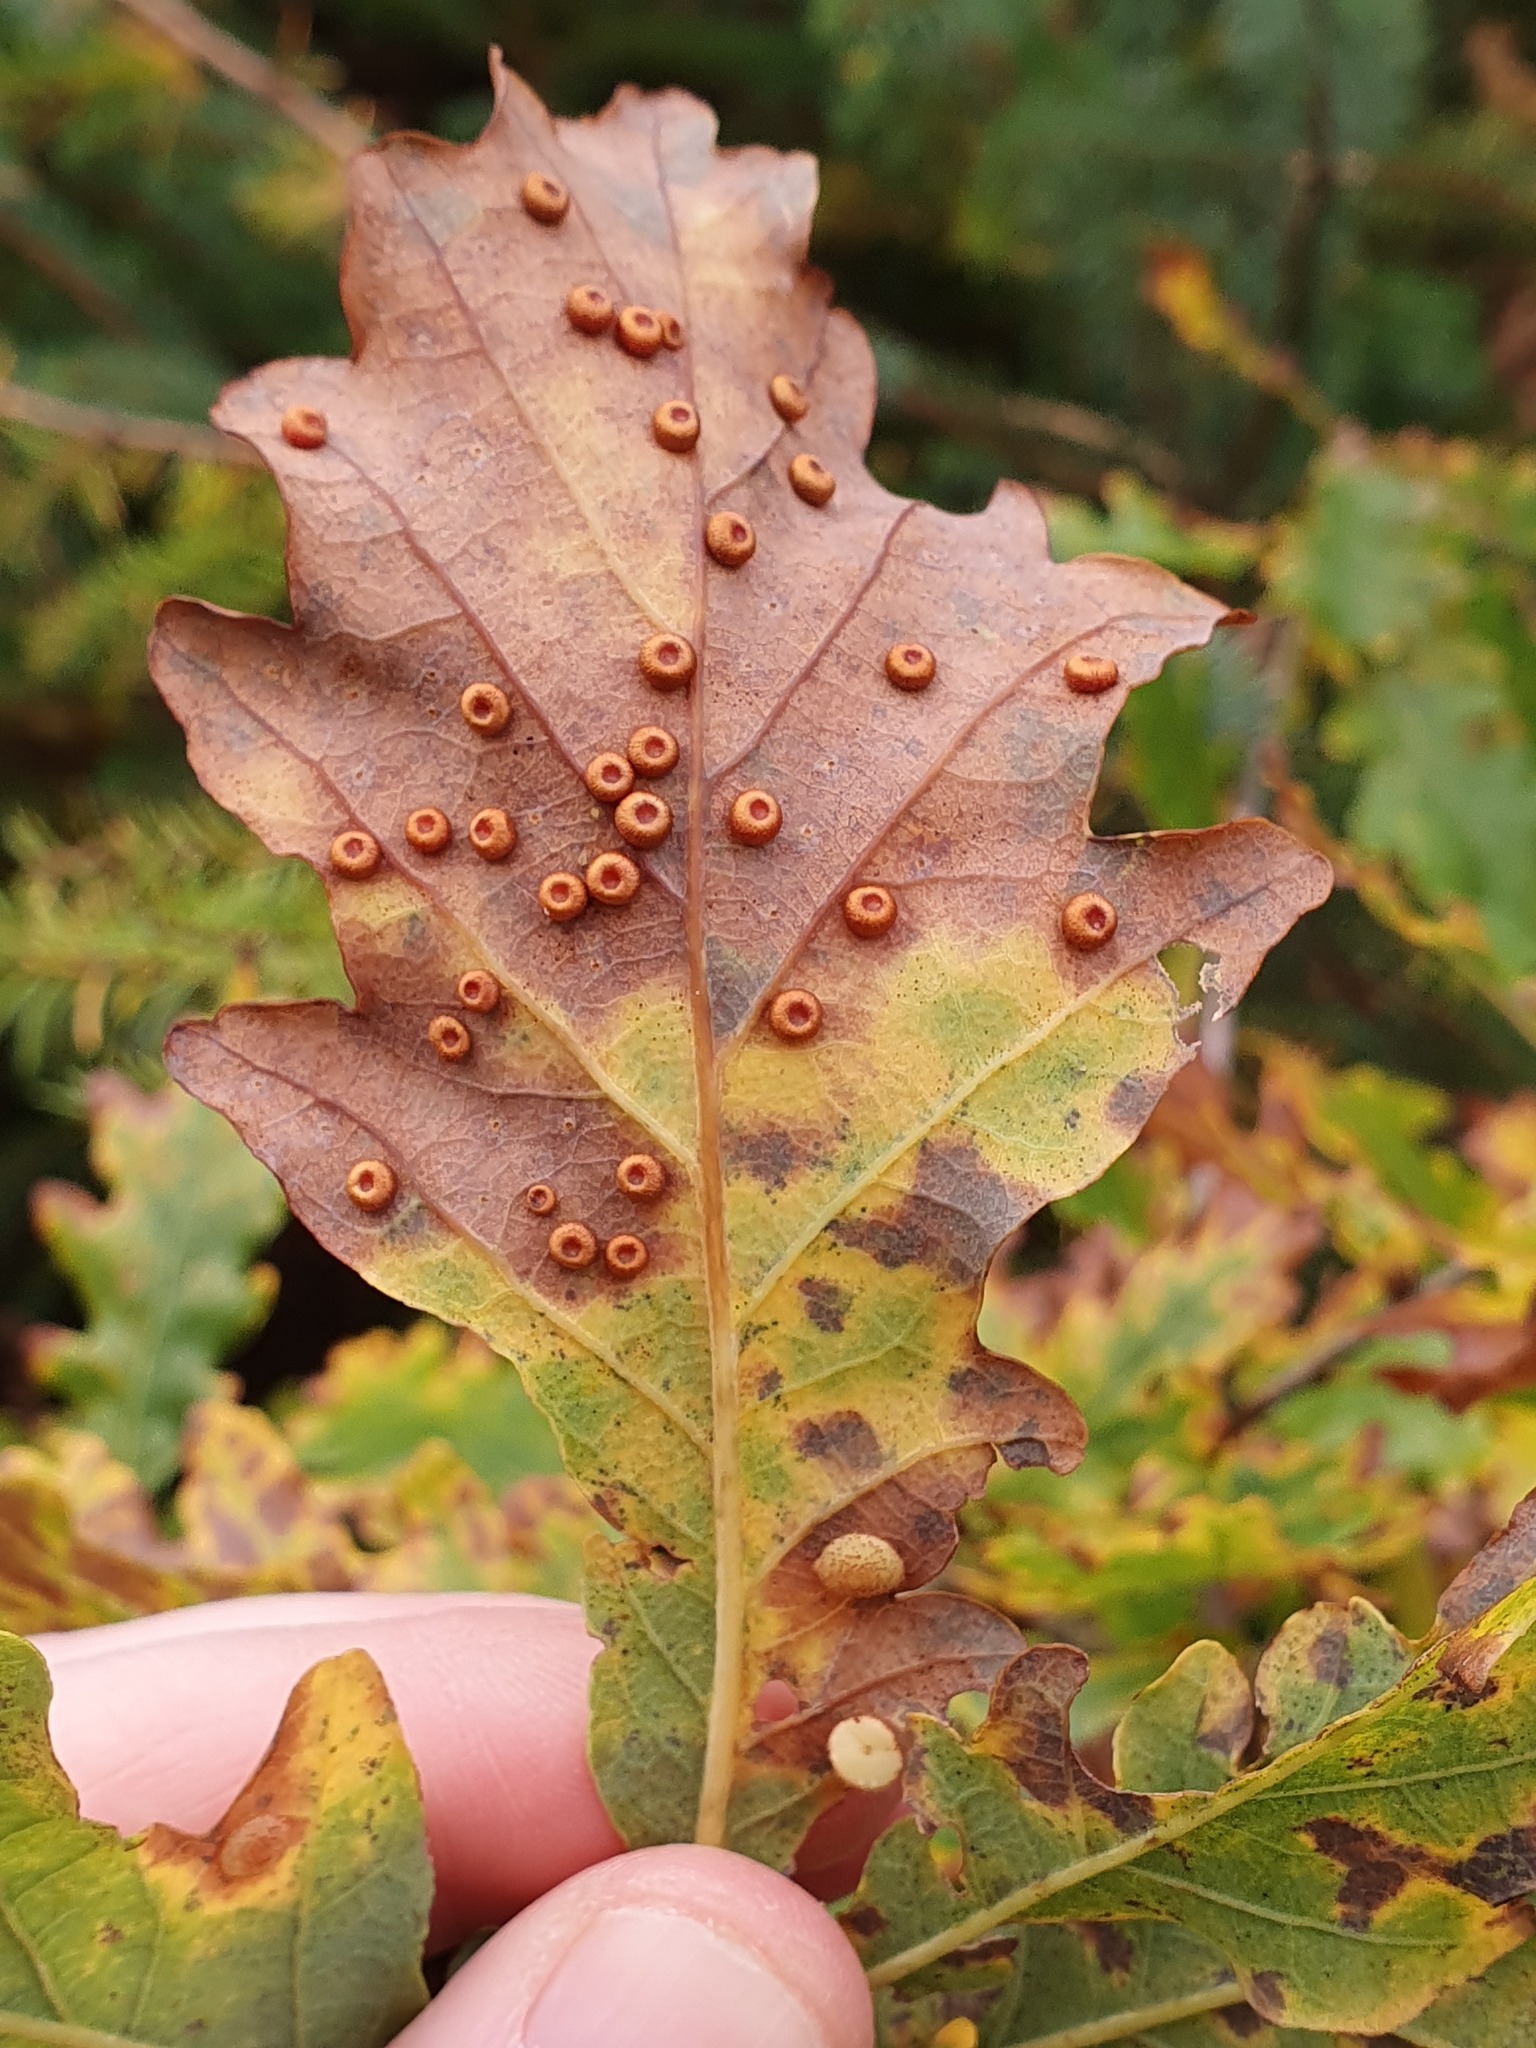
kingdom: Animalia
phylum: Arthropoda
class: Insecta
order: Hymenoptera
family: Cynipidae
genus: Neuroterus
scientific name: Neuroterus numismalis
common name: Silk-button spangle gall
